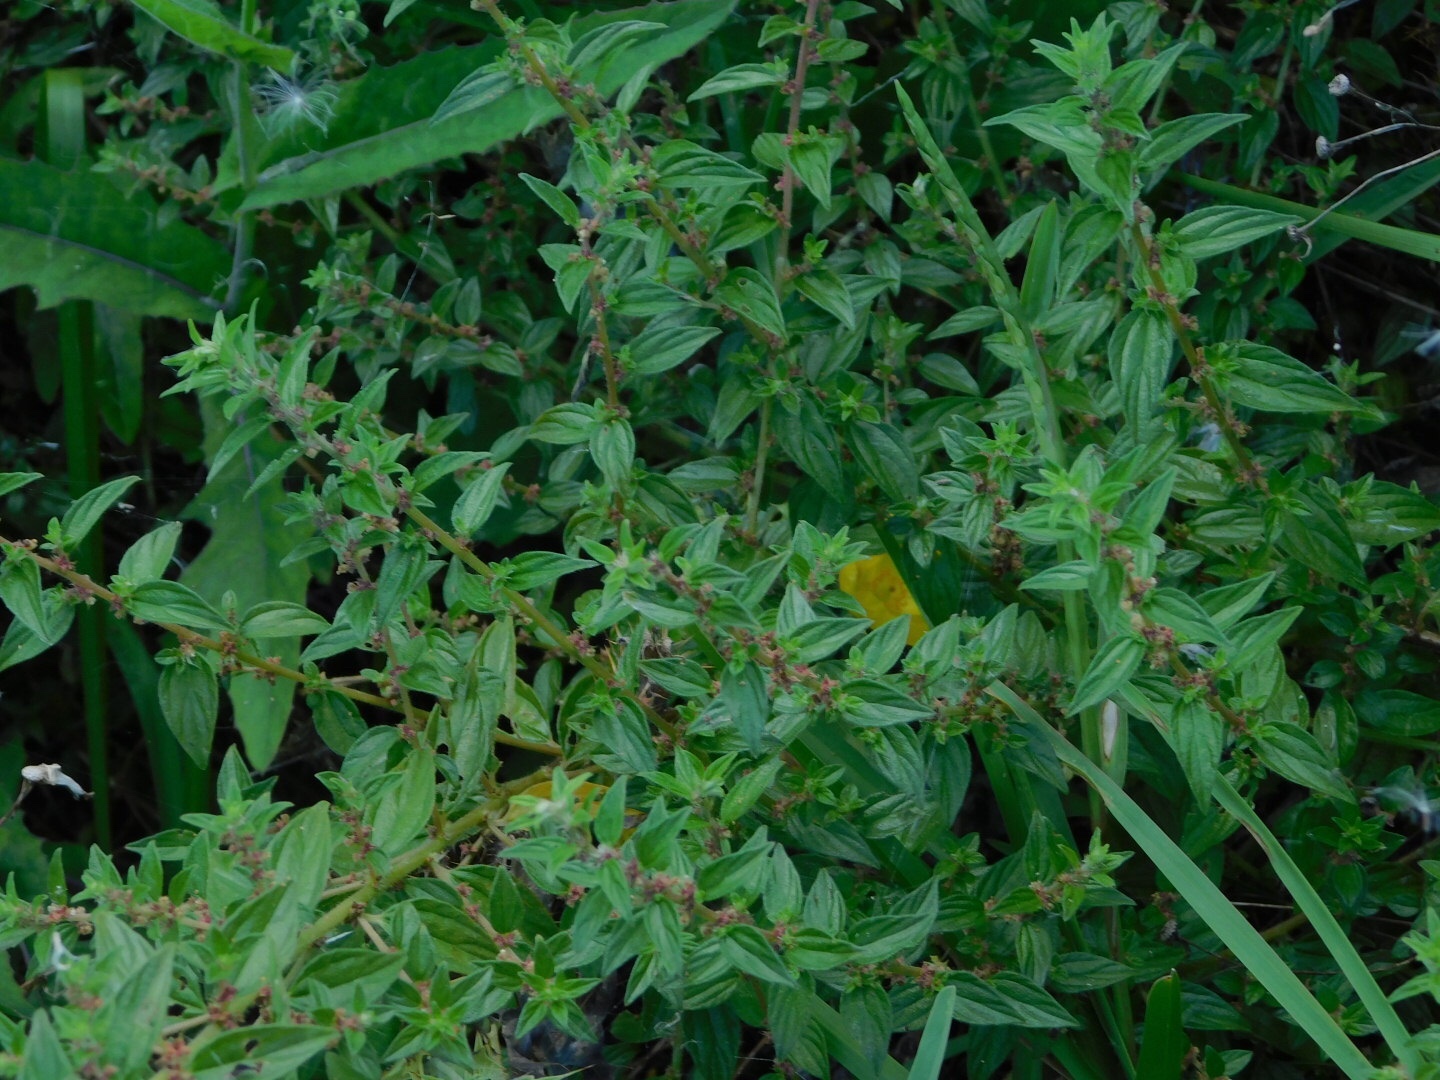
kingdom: Plantae
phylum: Tracheophyta
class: Magnoliopsida
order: Rosales
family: Urticaceae
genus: Pouzolzia
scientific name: Pouzolzia zeylanica
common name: Graceful pouzolzsbush
